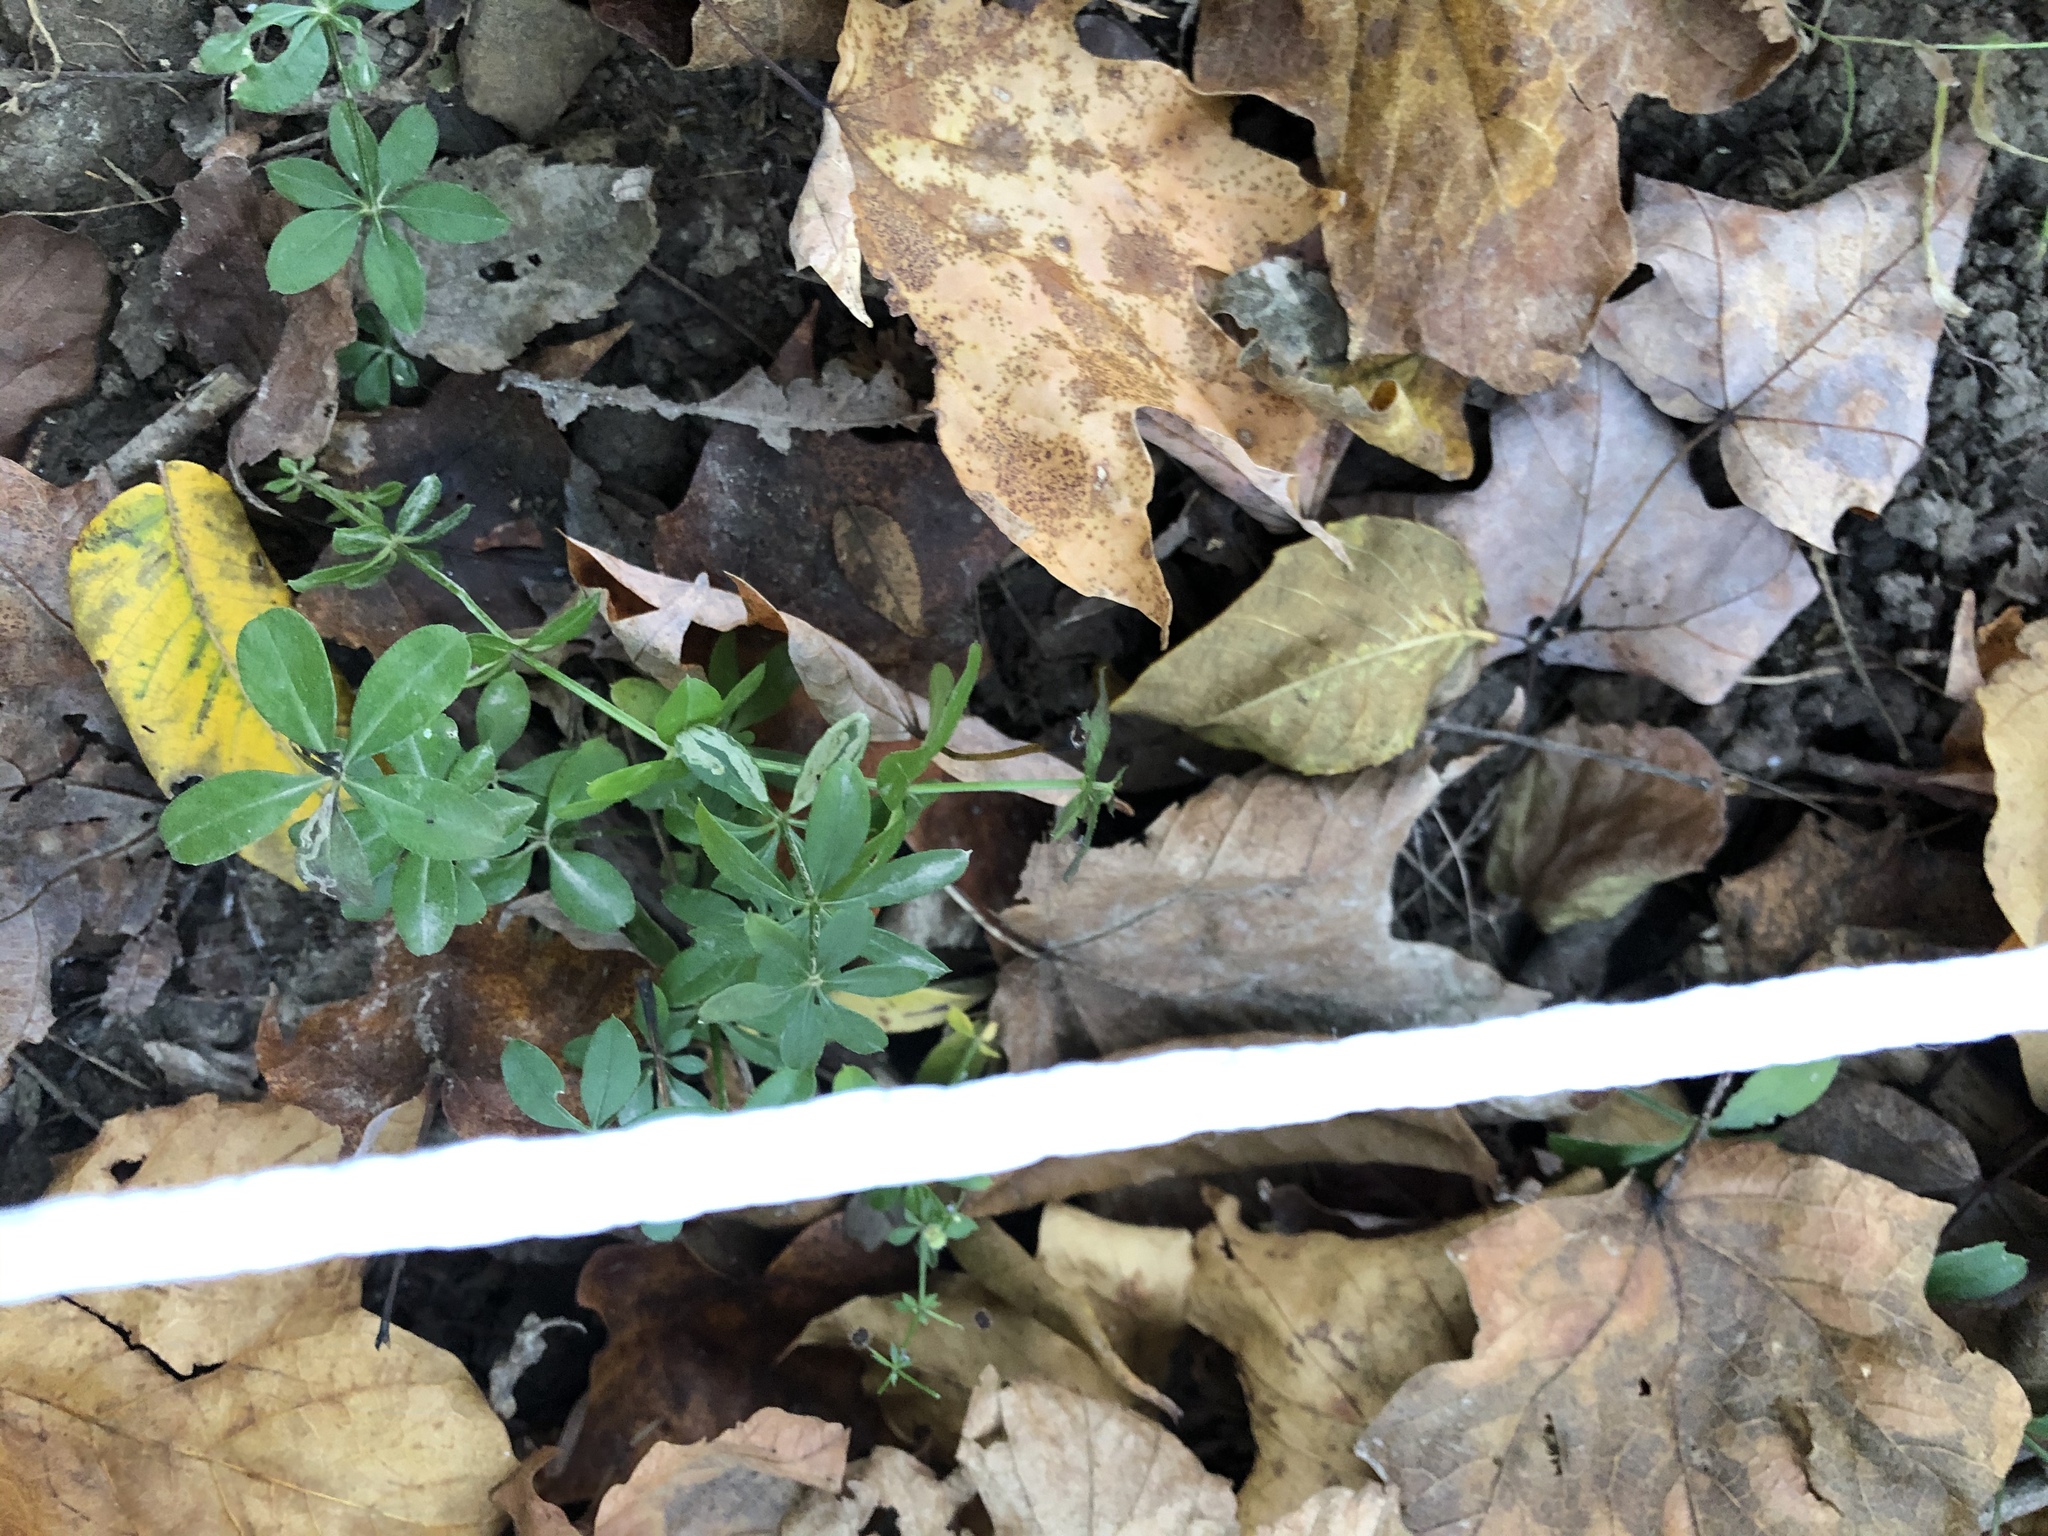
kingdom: Plantae
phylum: Tracheophyta
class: Magnoliopsida
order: Gentianales
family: Rubiaceae
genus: Galium
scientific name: Galium triflorum
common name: Fragrant bedstraw
